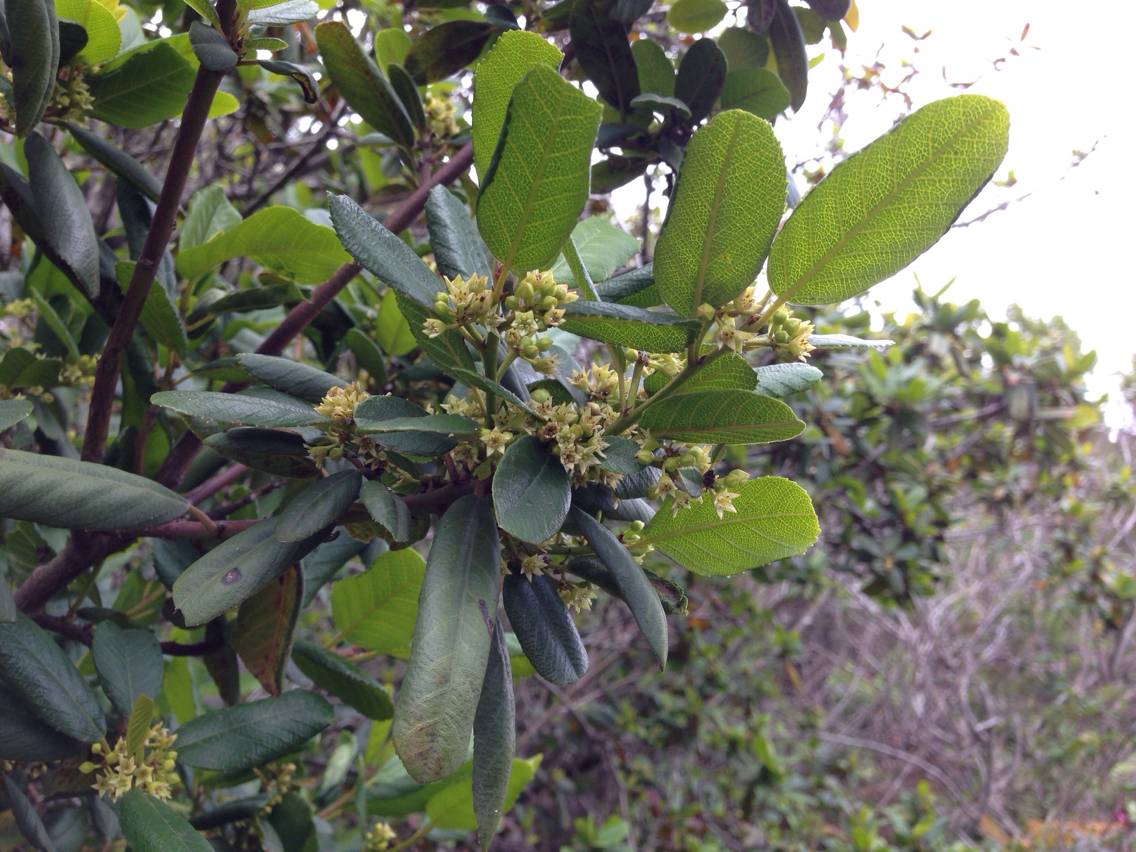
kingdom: Plantae
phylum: Tracheophyta
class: Magnoliopsida
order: Rosales
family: Rhamnaceae
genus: Frangula
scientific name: Frangula californica
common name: California buckthorn
